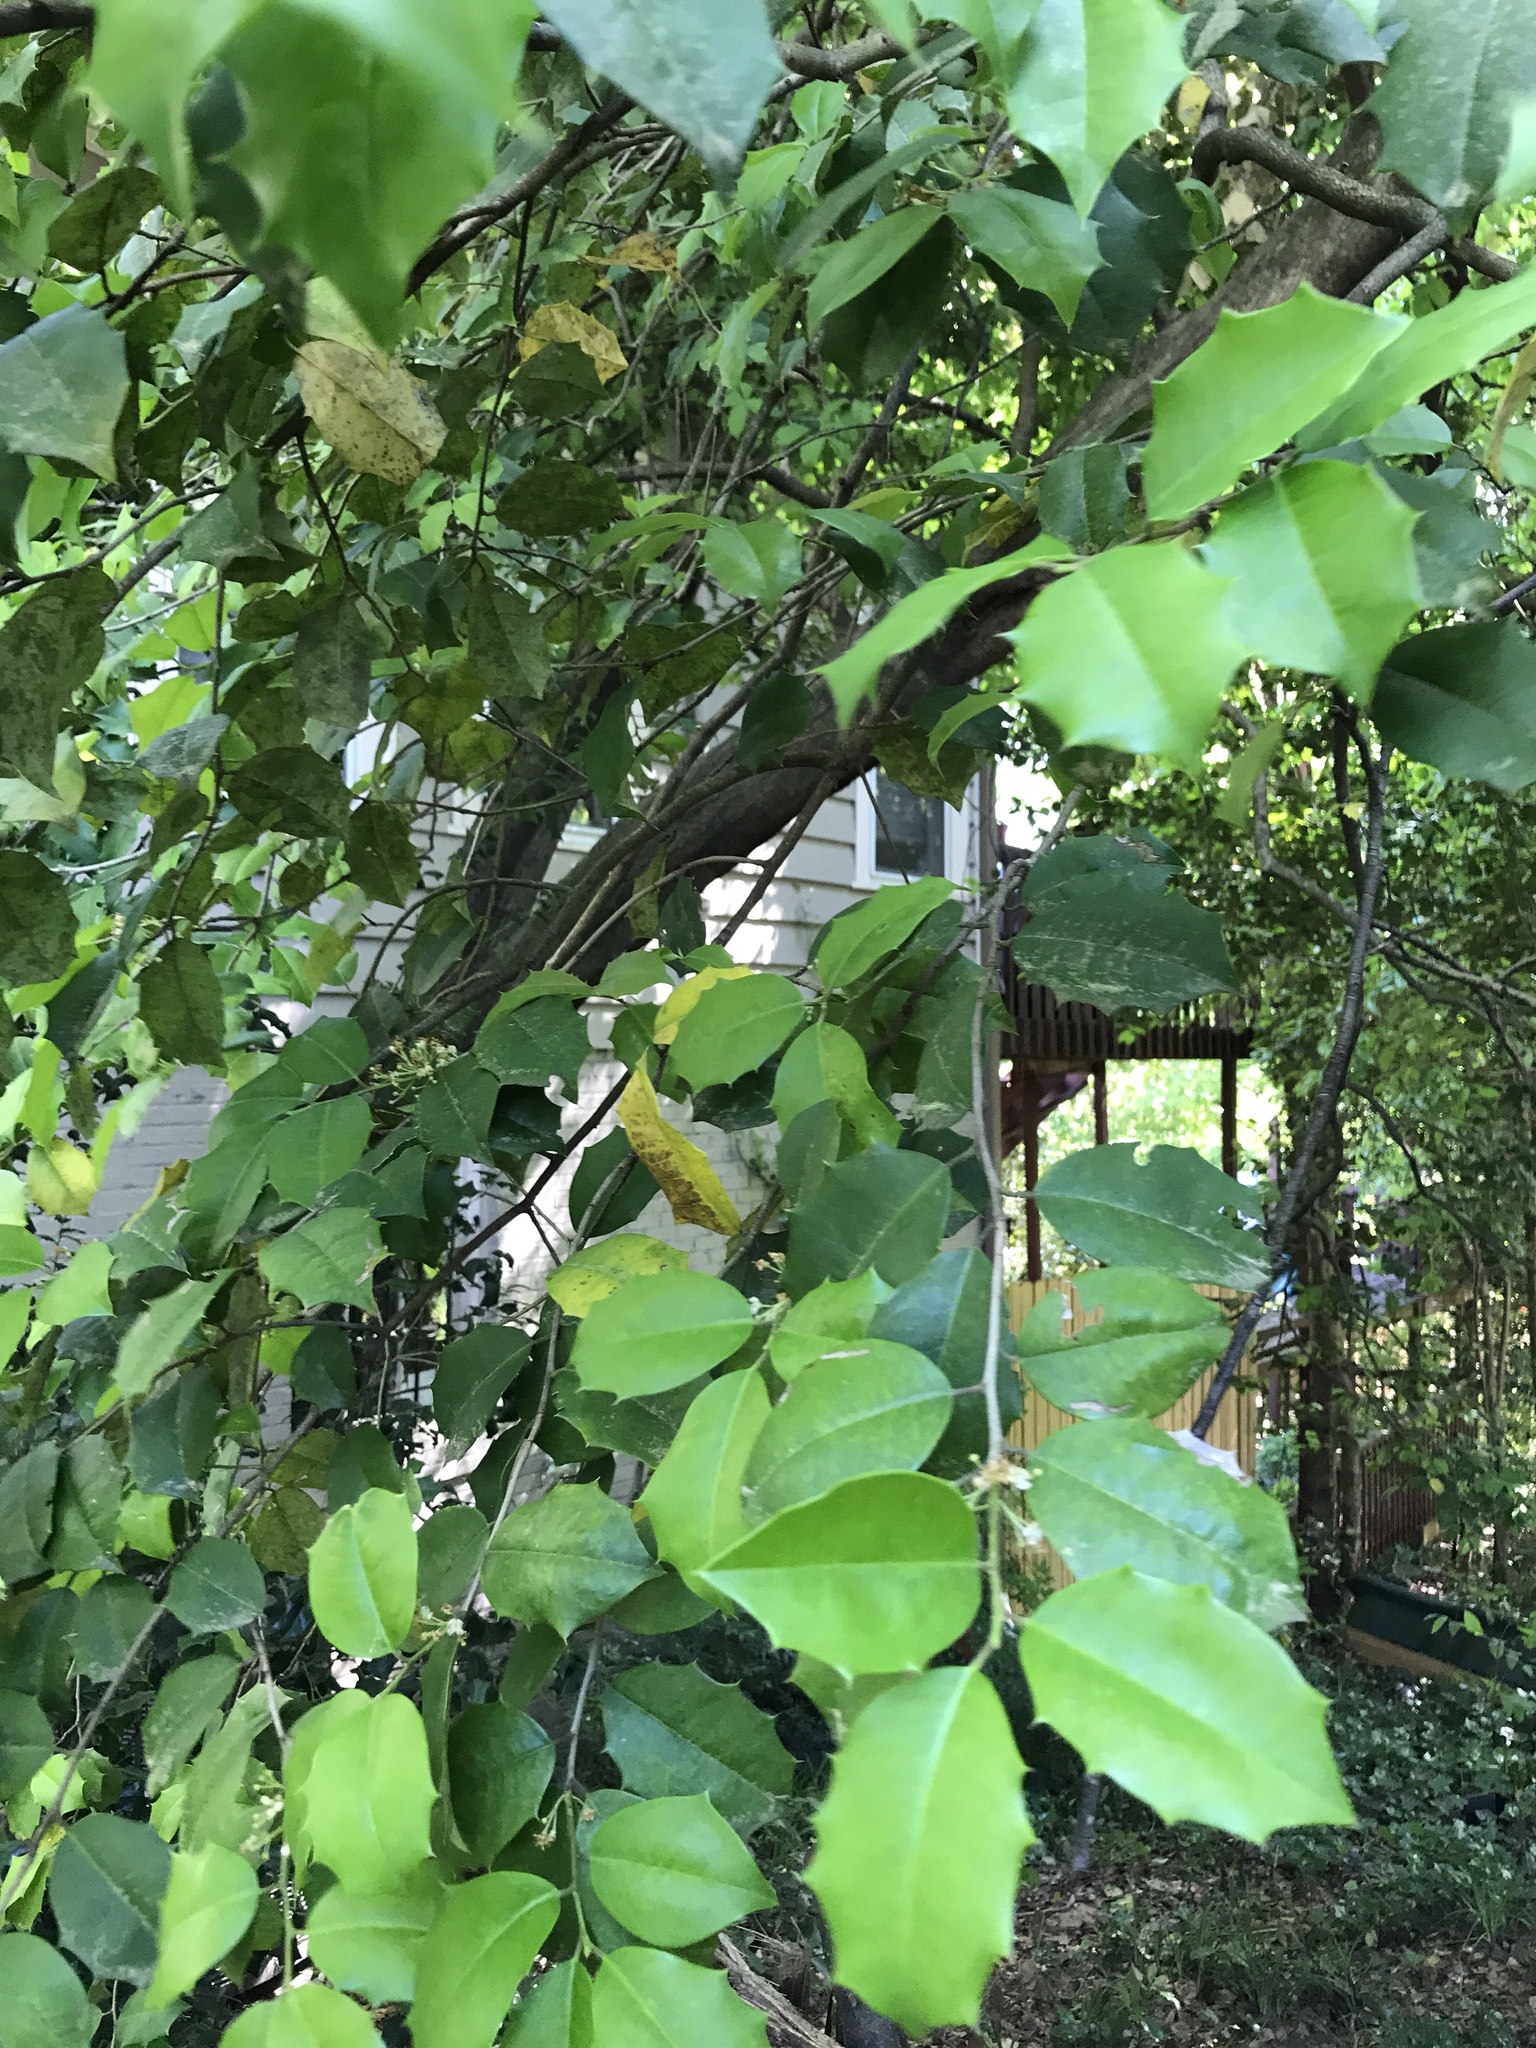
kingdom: Plantae
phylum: Tracheophyta
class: Magnoliopsida
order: Aquifoliales
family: Aquifoliaceae
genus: Ilex
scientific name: Ilex opaca
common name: American holly
